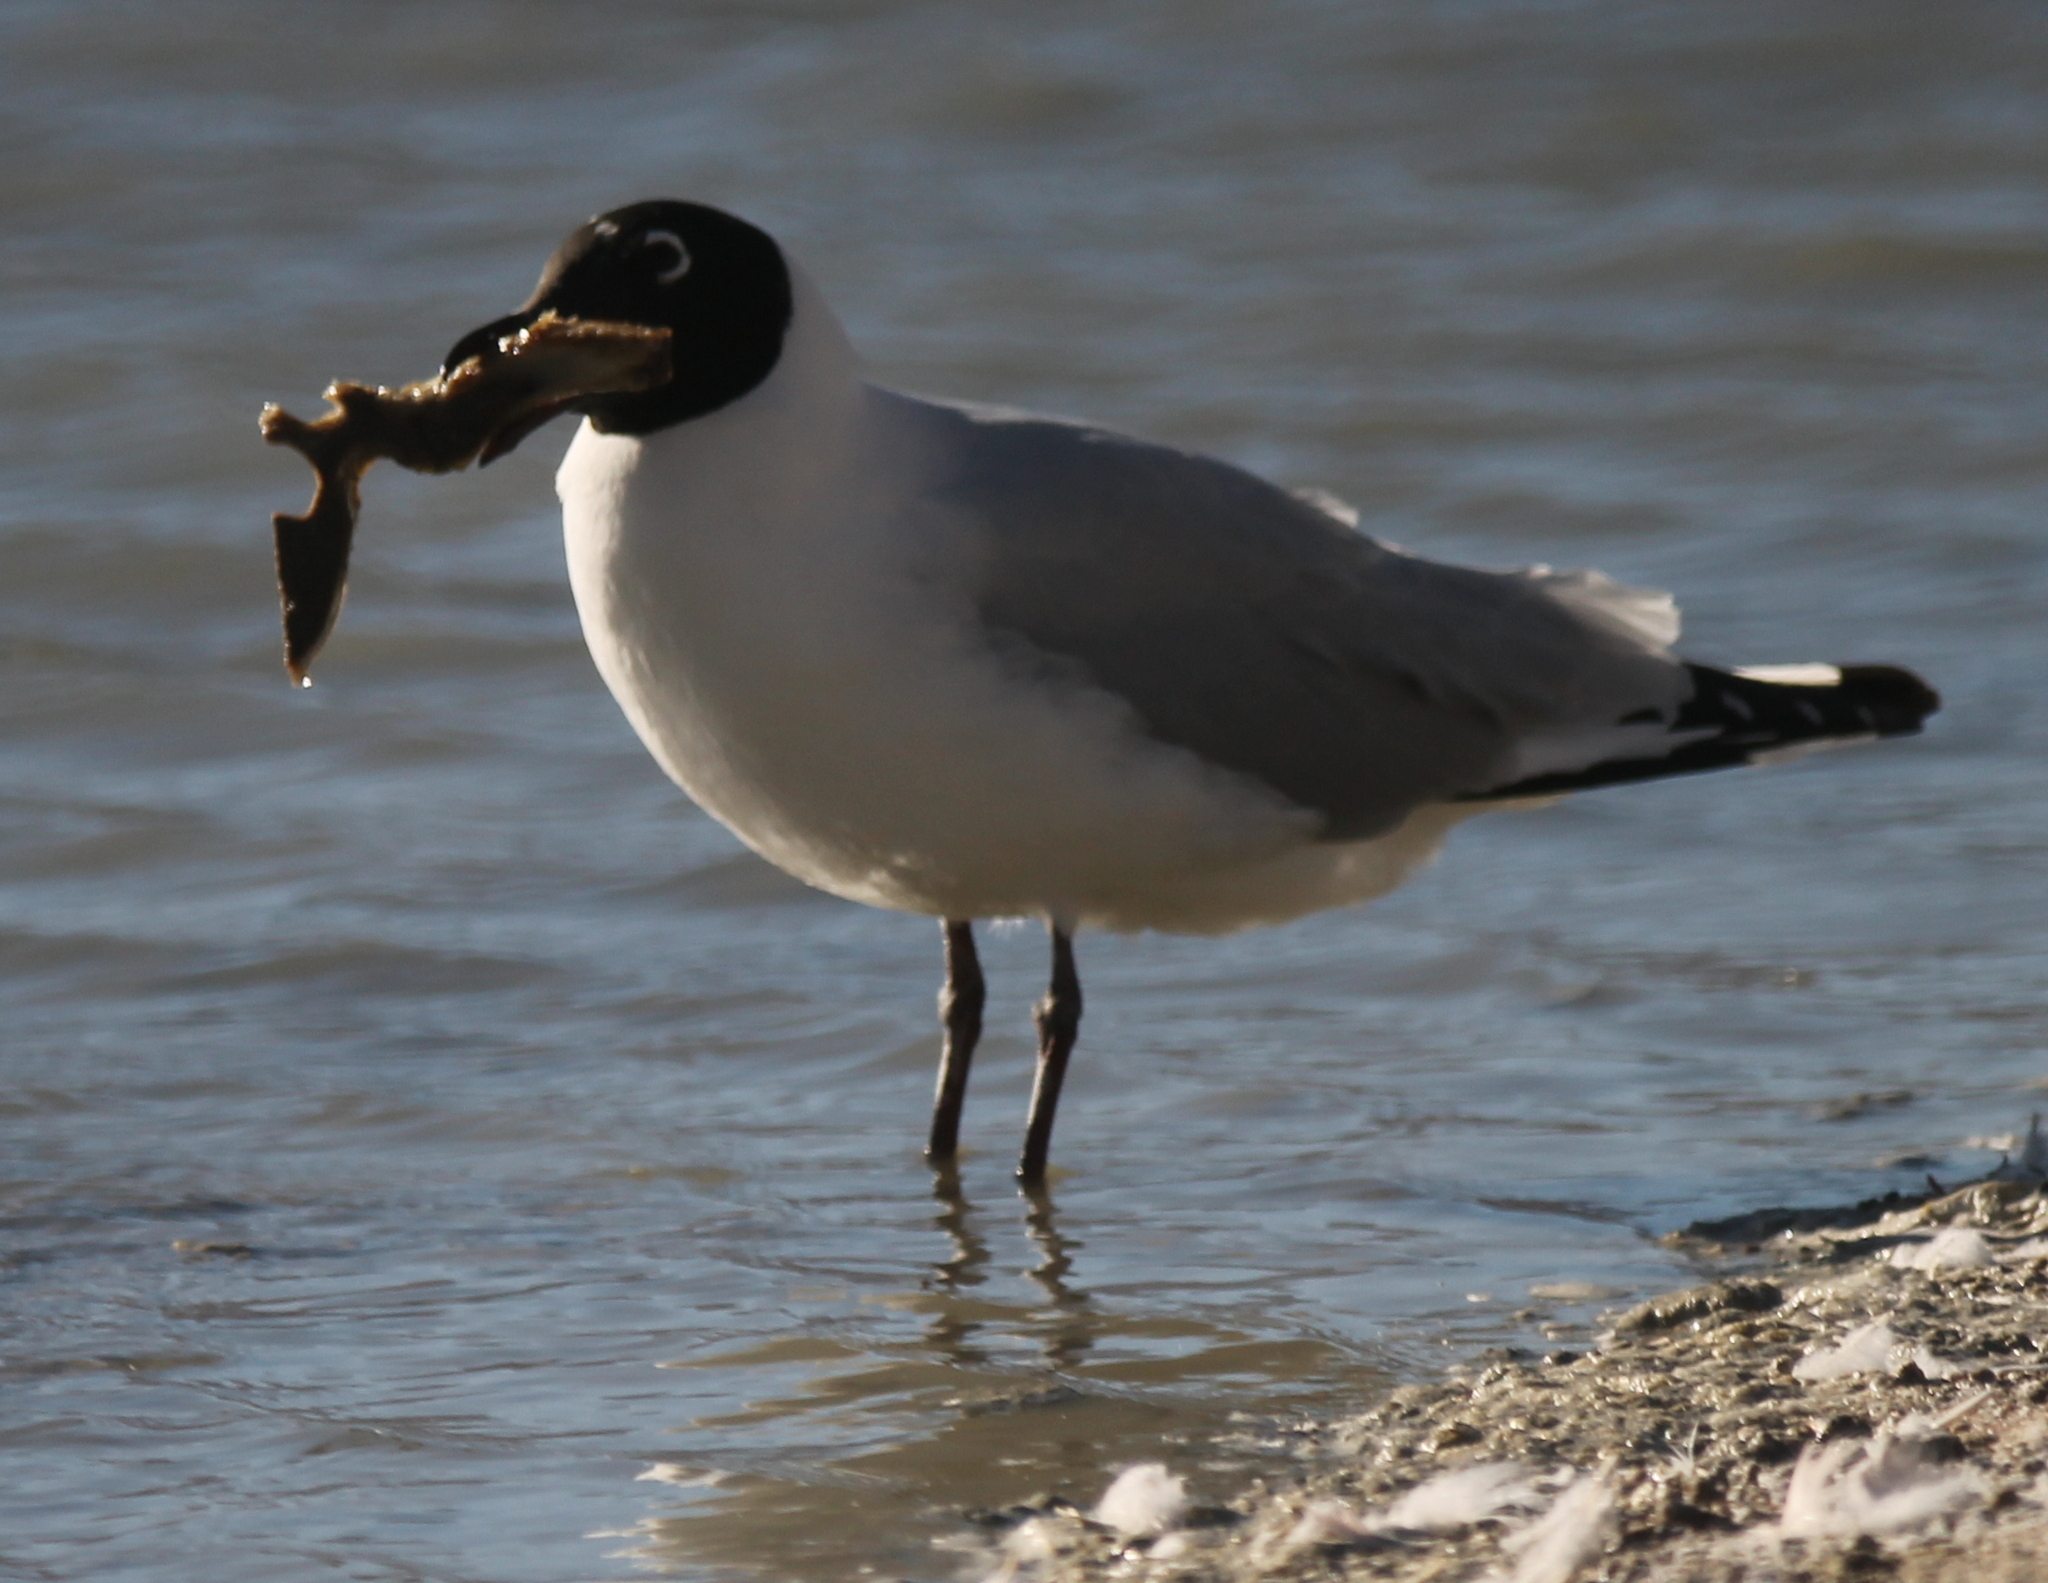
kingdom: Animalia
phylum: Chordata
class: Aves
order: Charadriiformes
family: Laridae
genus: Chroicocephalus
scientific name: Chroicocephalus serranus
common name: Andean gull
